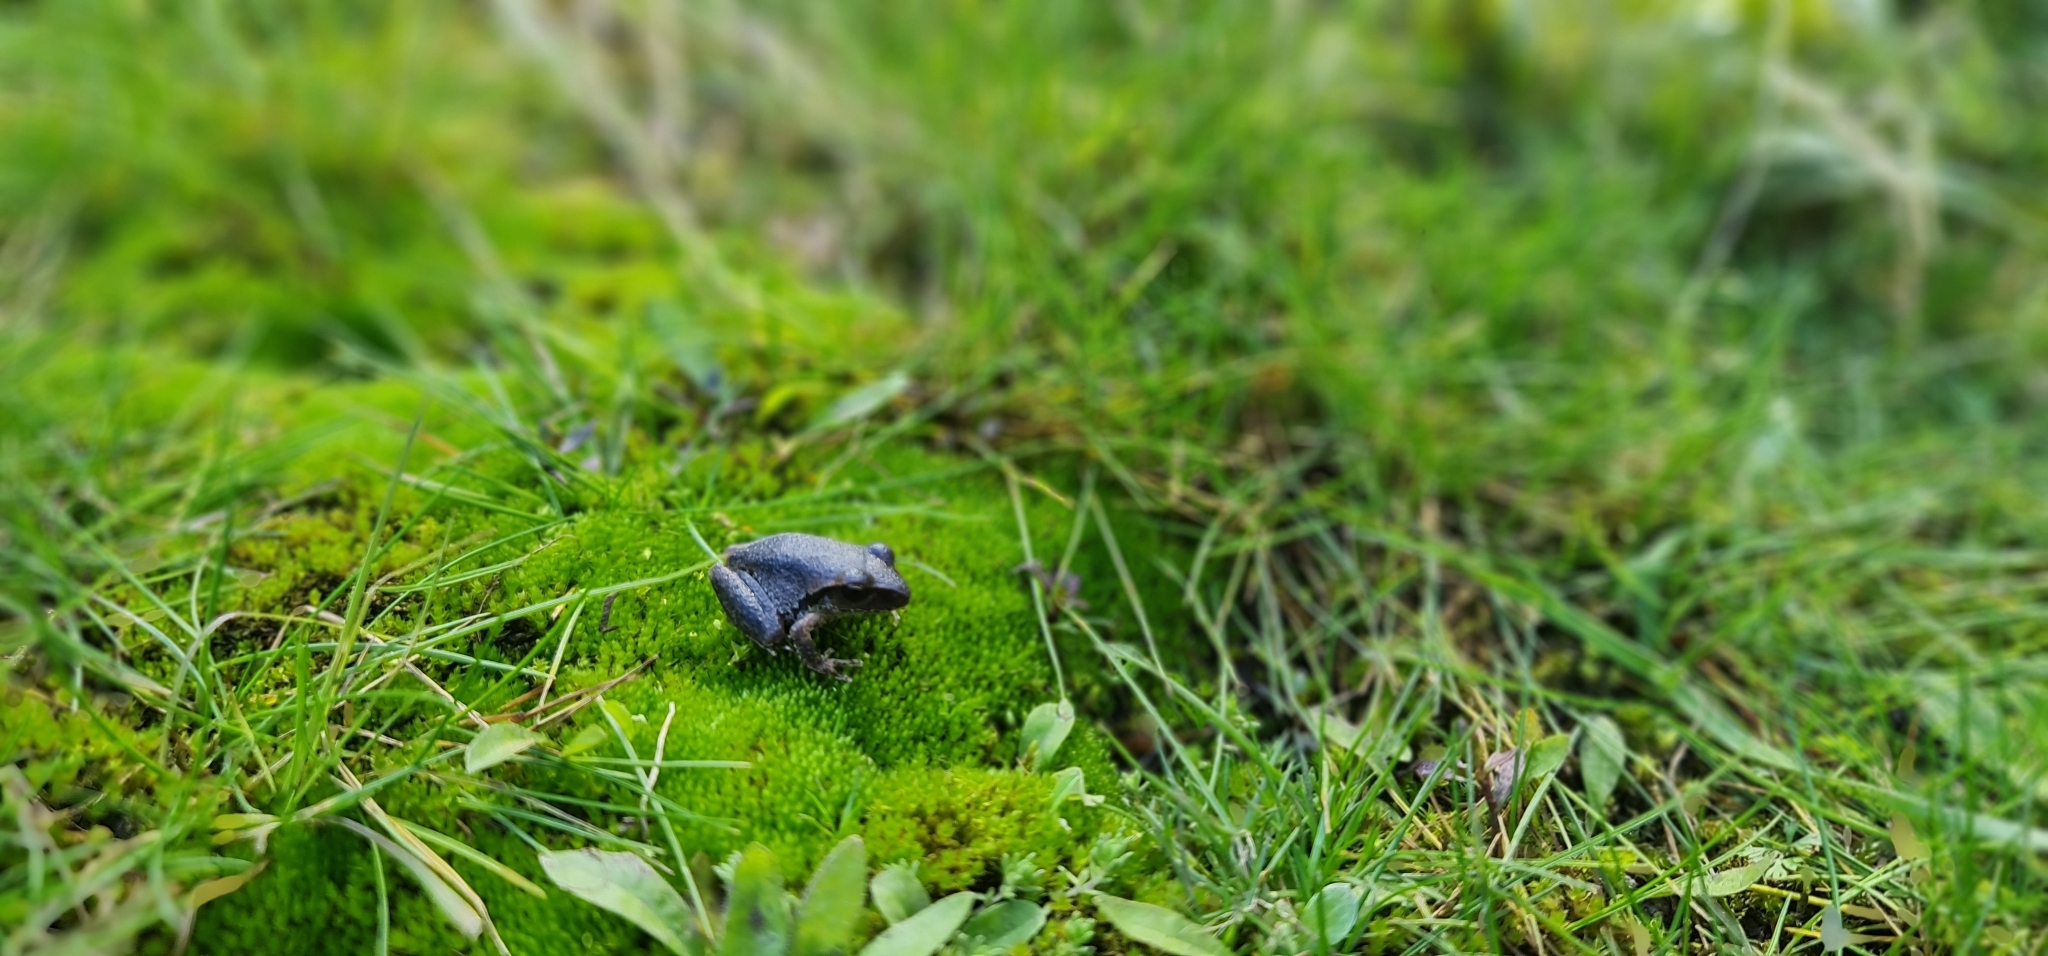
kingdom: Animalia
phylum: Chordata
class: Amphibia
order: Anura
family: Pelodryadidae
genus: Ranoidea
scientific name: Ranoidea wilcoxii
